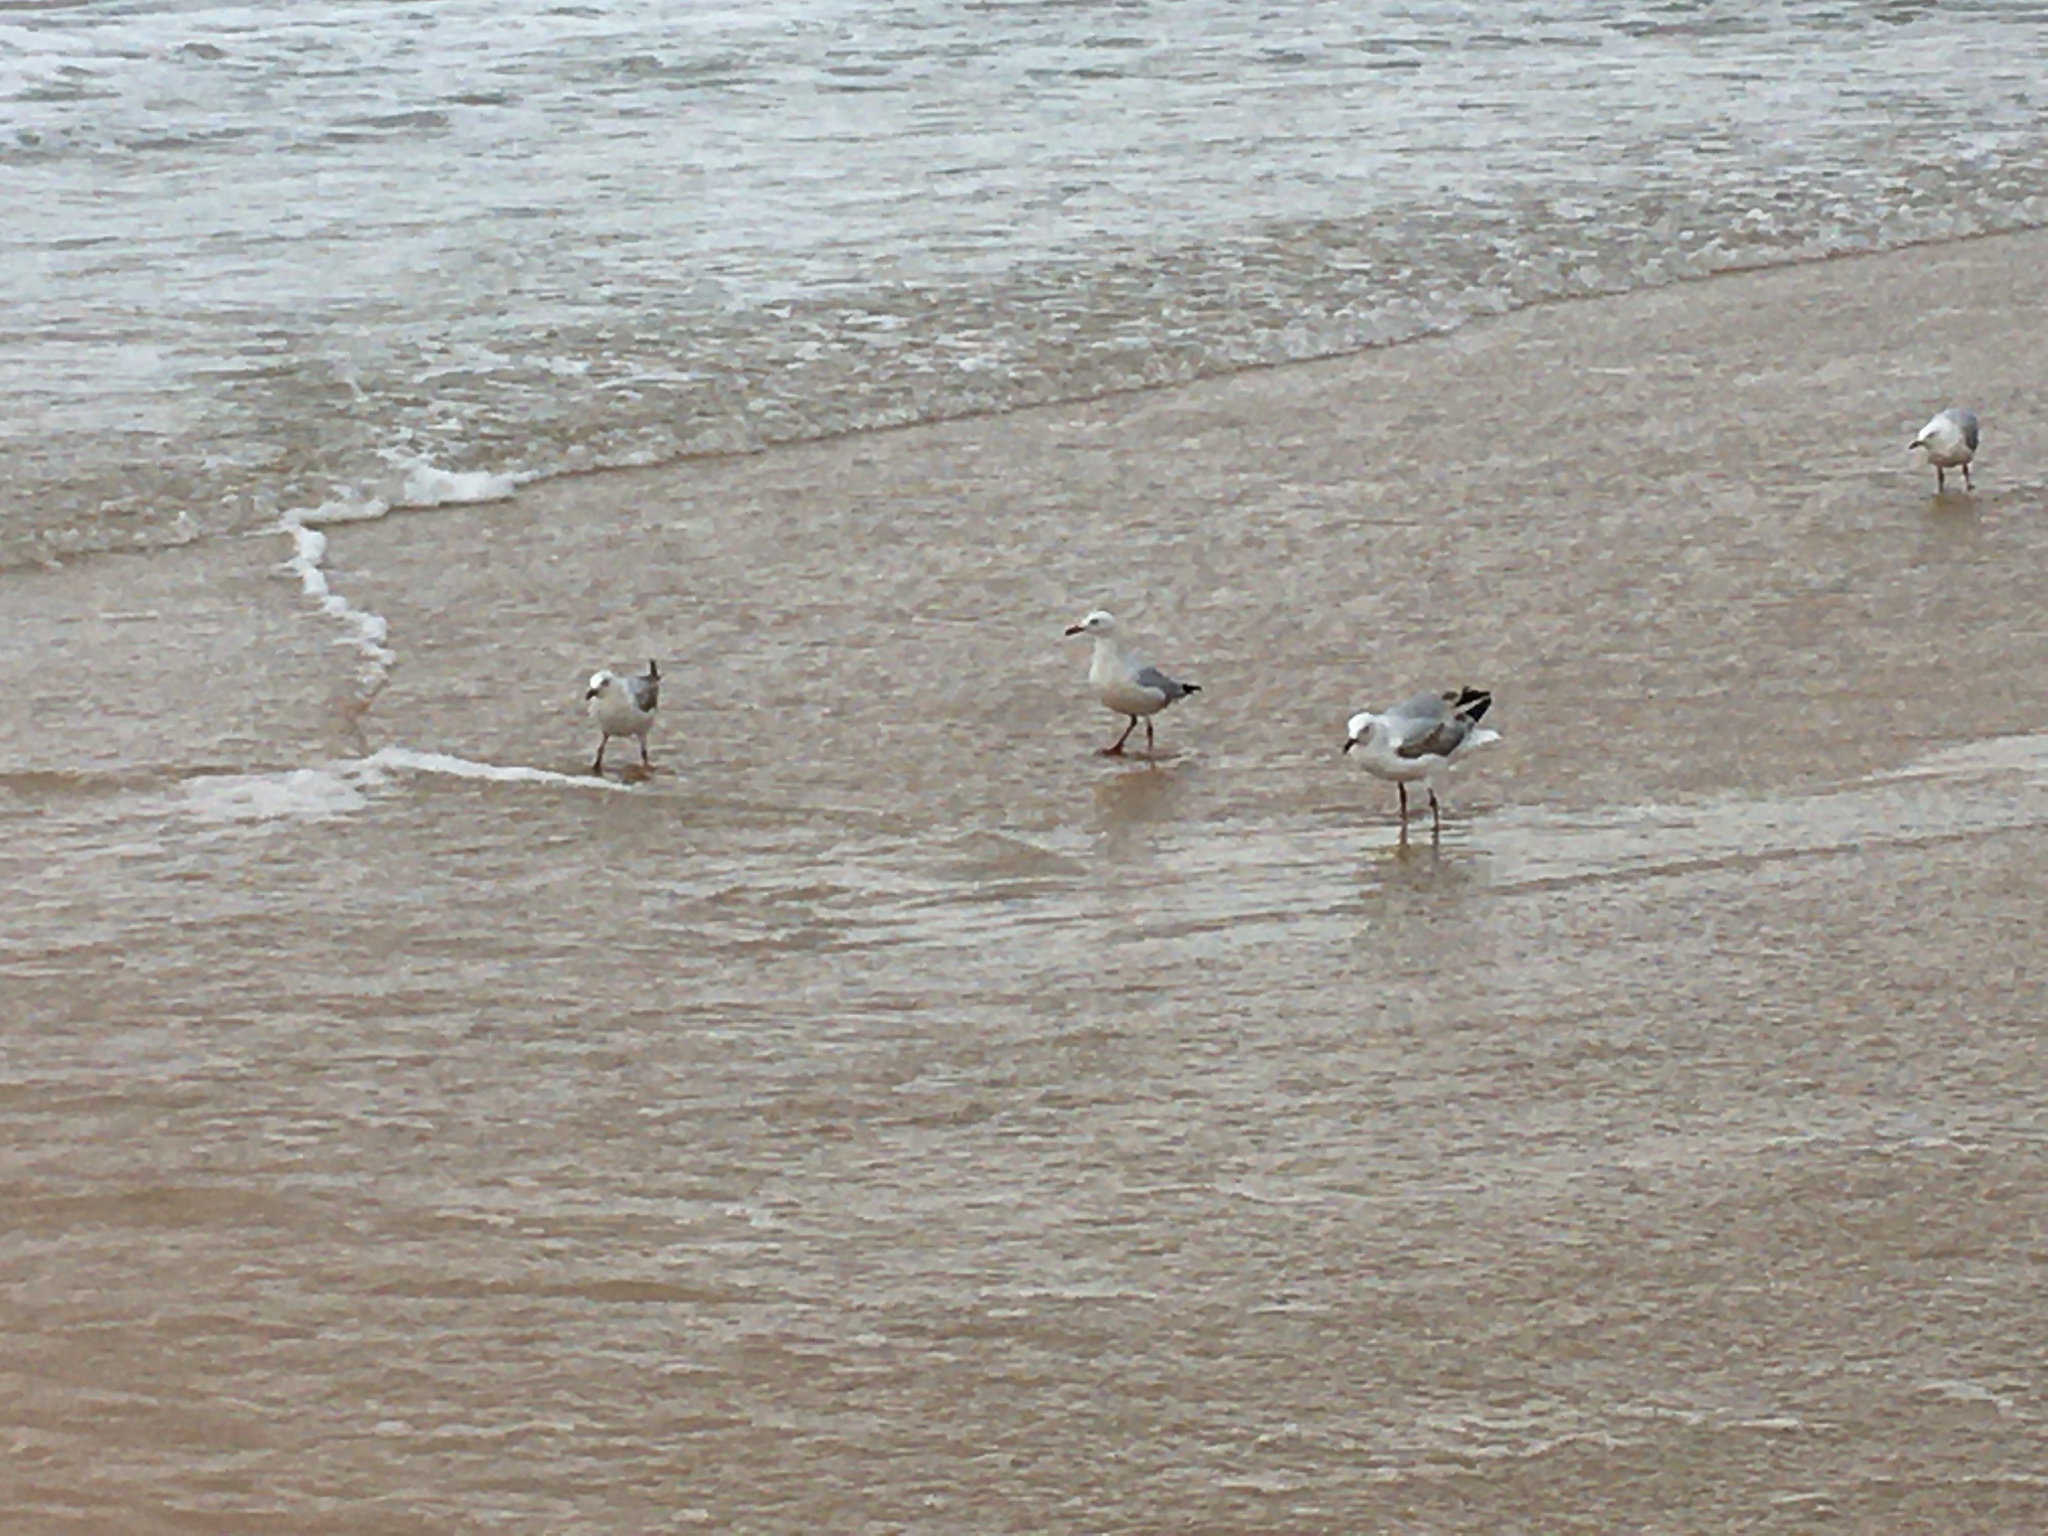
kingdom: Animalia
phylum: Chordata
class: Aves
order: Charadriiformes
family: Laridae
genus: Chroicocephalus
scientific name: Chroicocephalus novaehollandiae
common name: Silver gull
